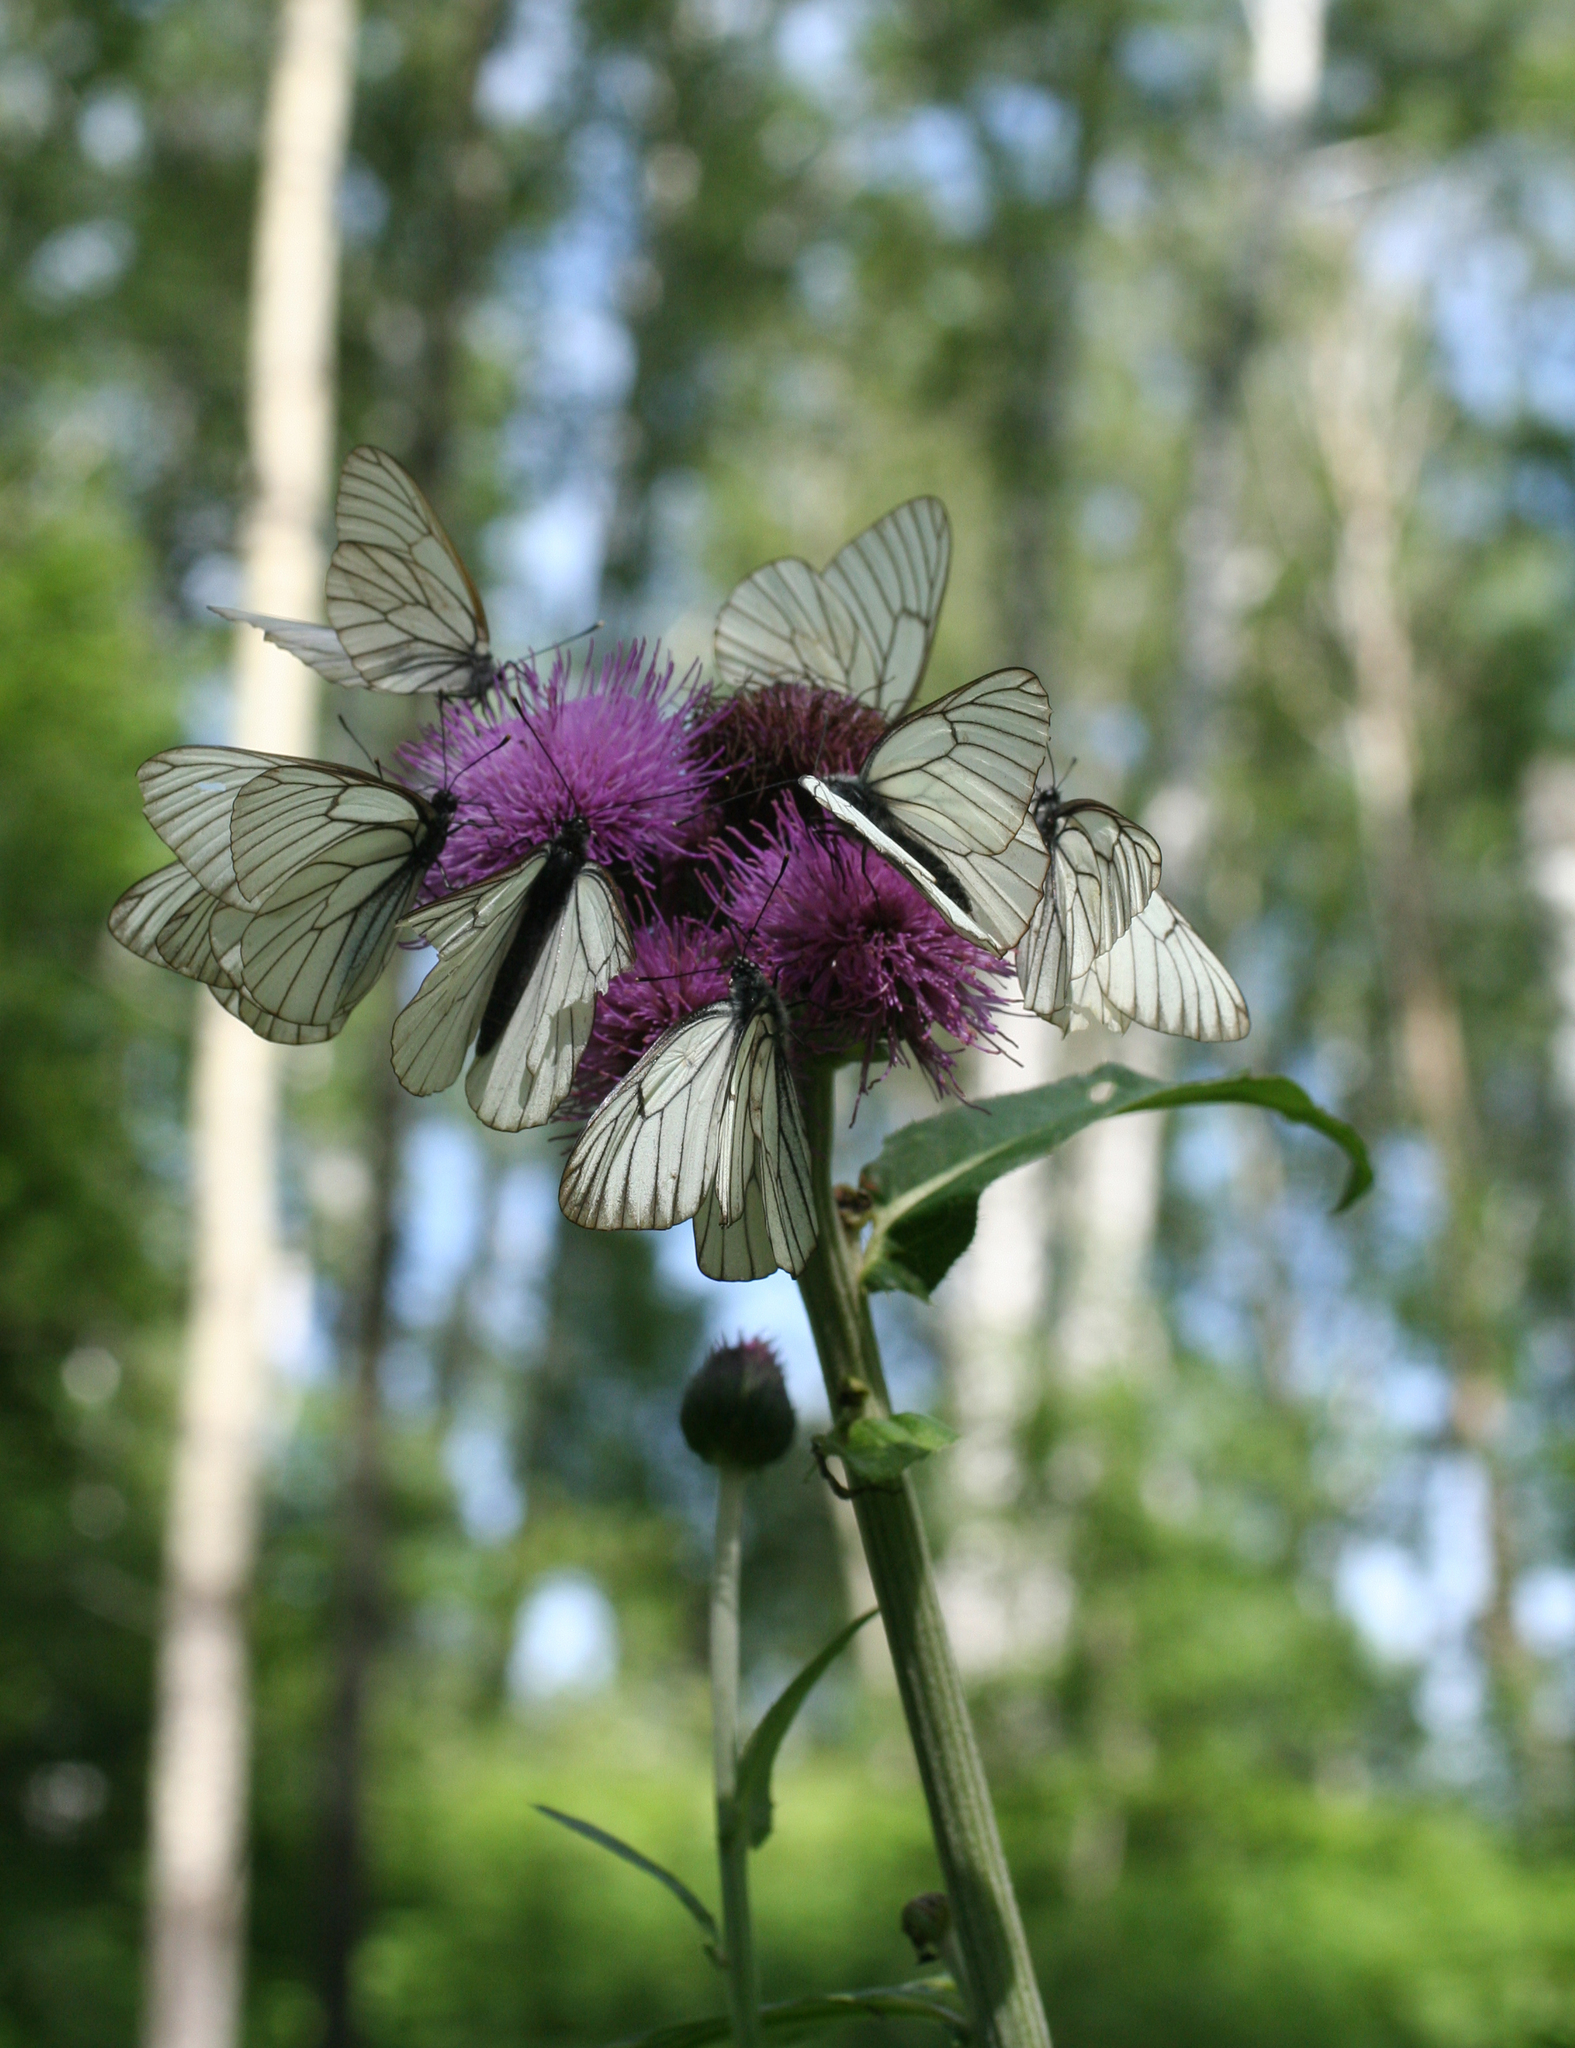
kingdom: Plantae
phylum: Tracheophyta
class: Magnoliopsida
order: Asterales
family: Asteraceae
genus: Cirsium
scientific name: Cirsium heterophyllum
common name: Melancholy thistle
